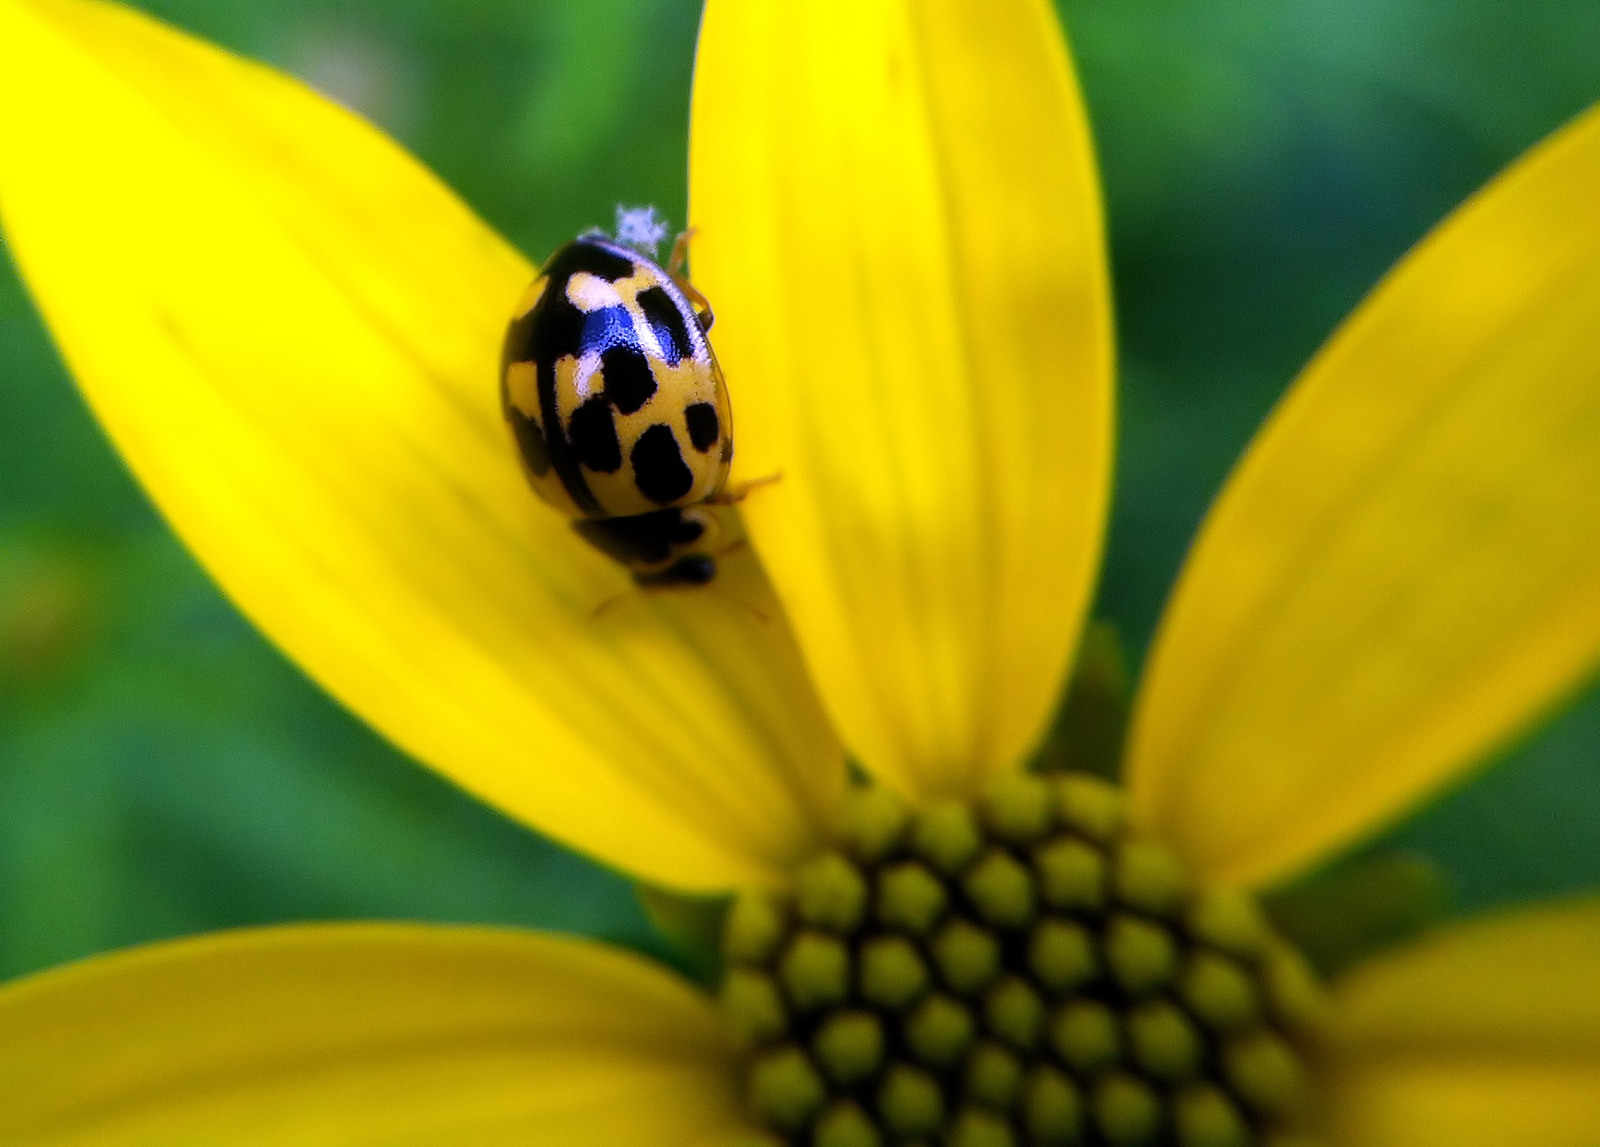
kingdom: Animalia
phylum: Arthropoda
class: Insecta
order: Coleoptera
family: Coccinellidae
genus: Propylaea
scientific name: Propylaea quatuordecimpunctata
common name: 14-spotted ladybird beetle
